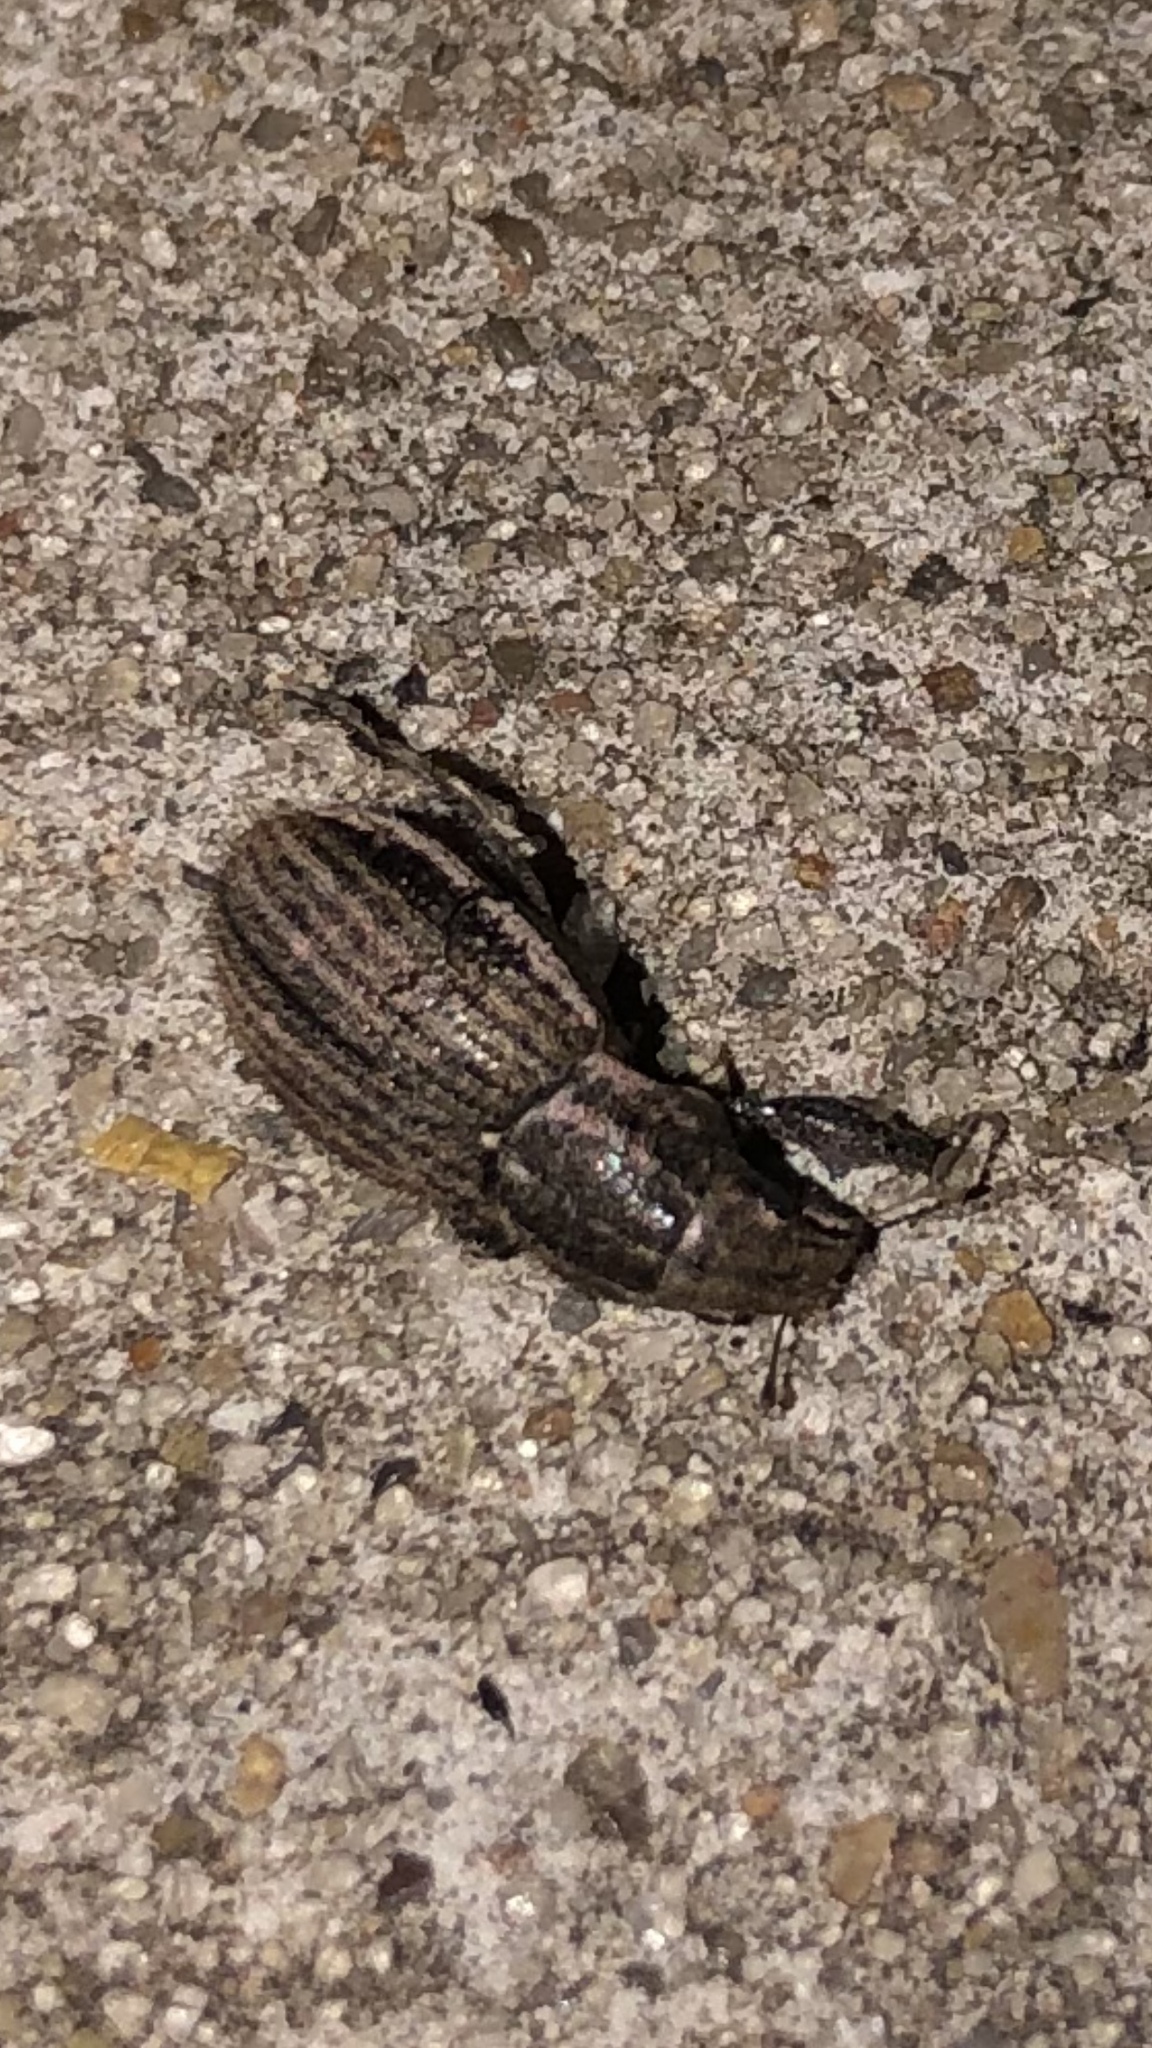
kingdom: Animalia
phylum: Arthropoda
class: Insecta
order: Coleoptera
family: Curculionidae
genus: Naupactus
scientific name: Naupactus leucoloma
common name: Whitefringed beetle
